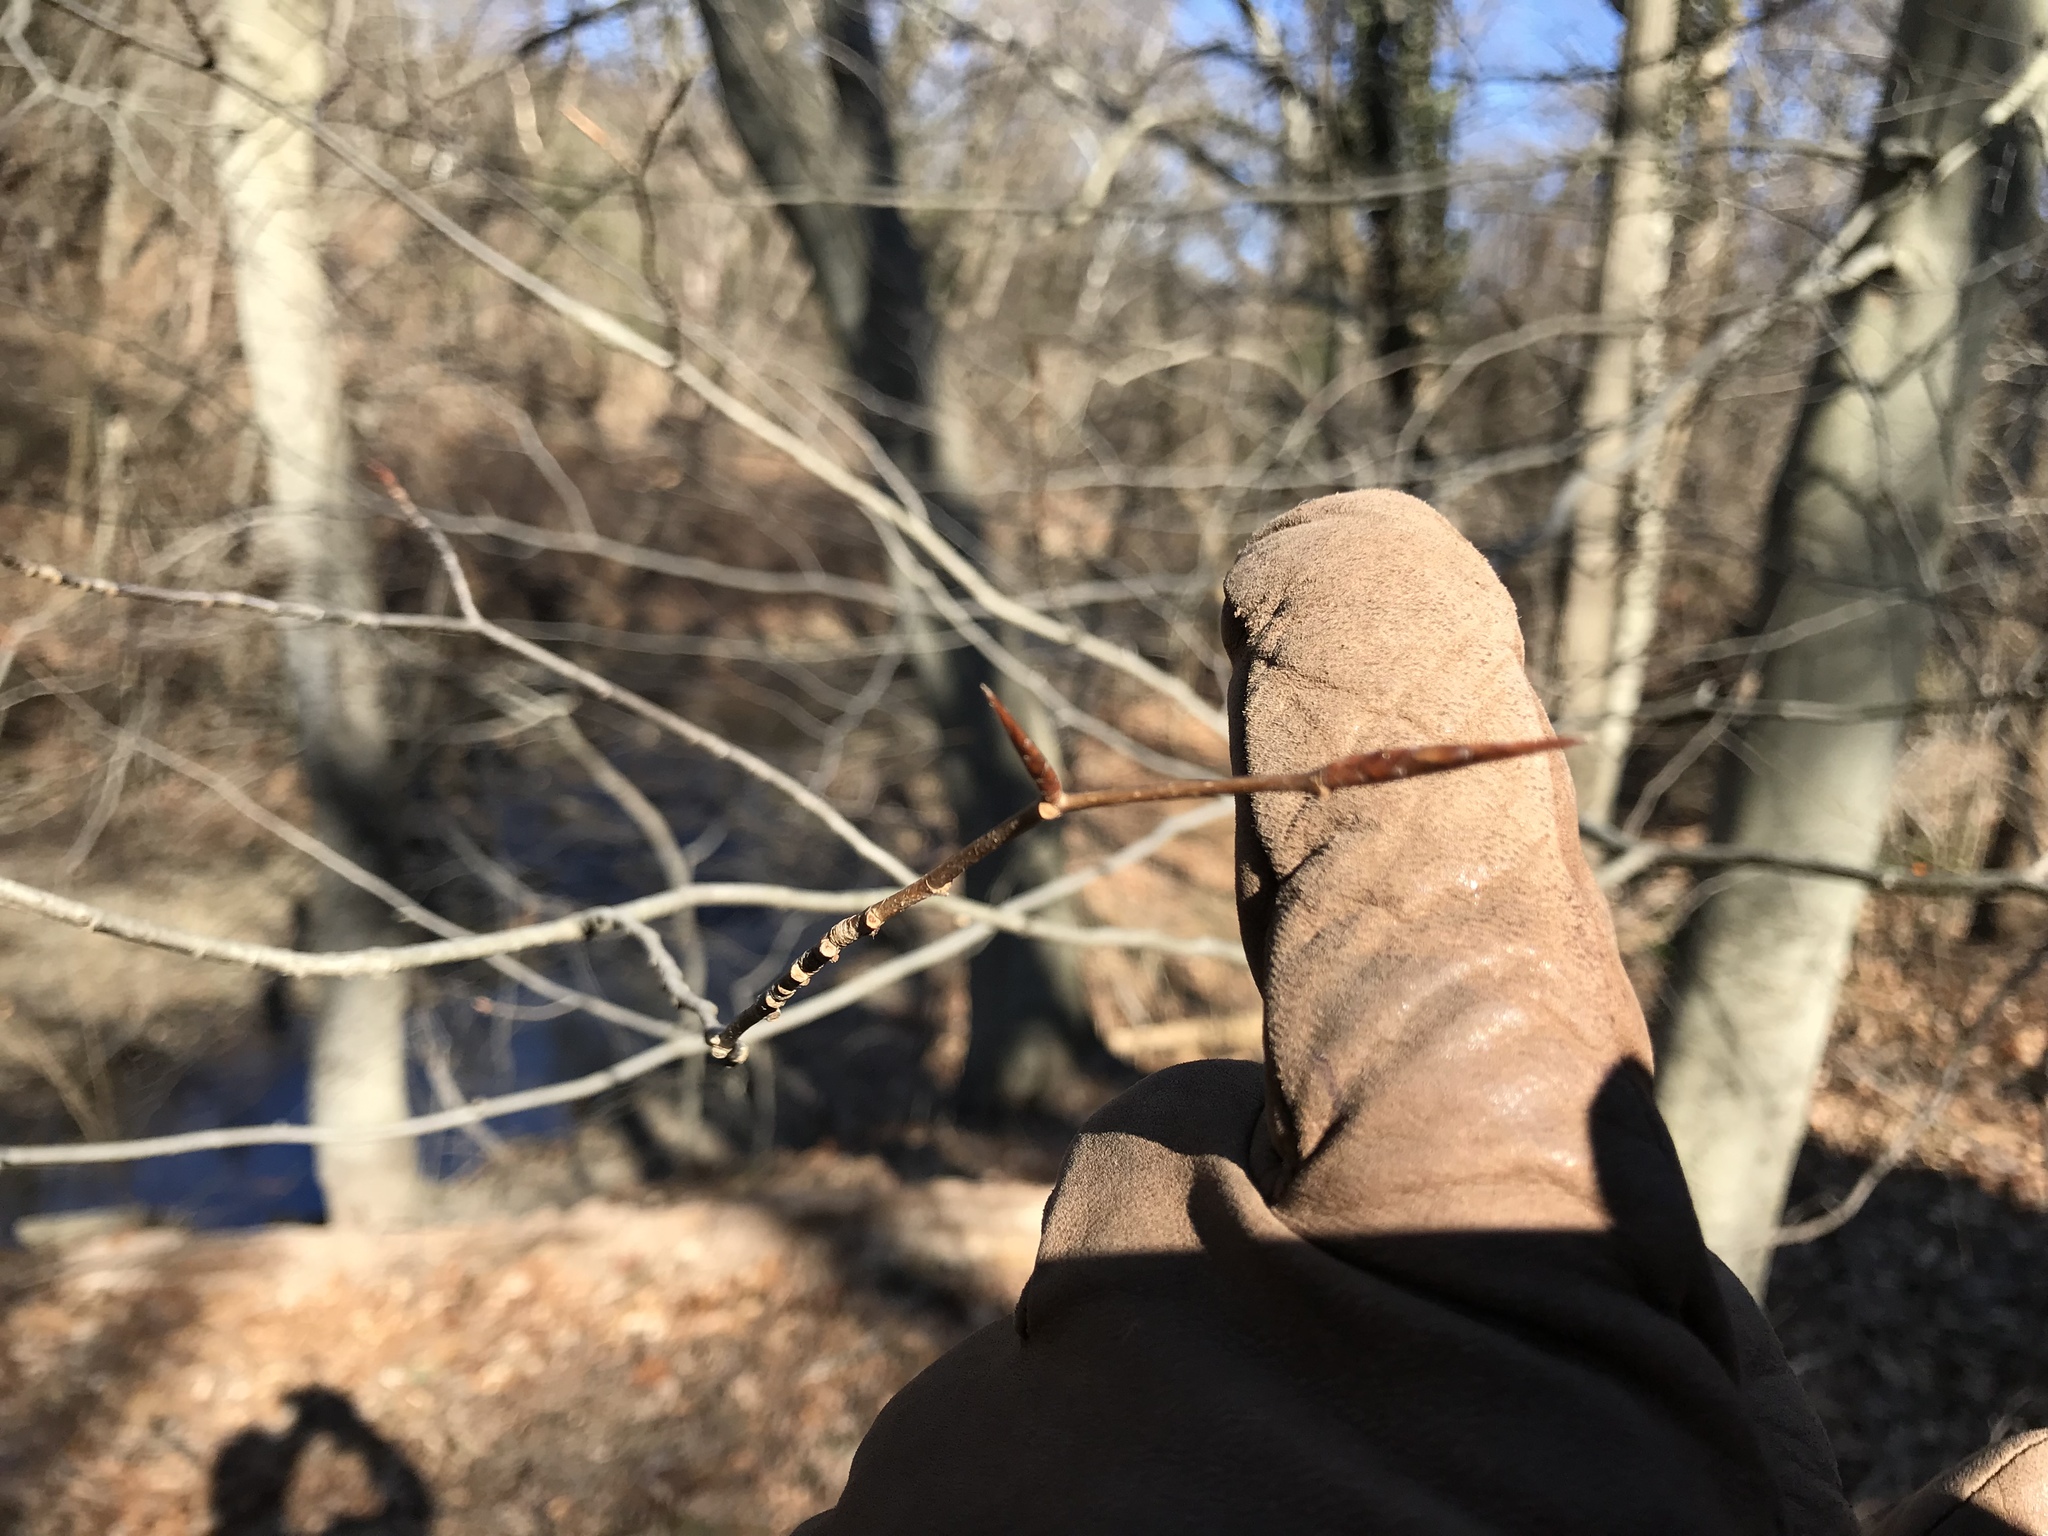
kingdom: Plantae
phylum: Tracheophyta
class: Magnoliopsida
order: Fagales
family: Fagaceae
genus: Fagus
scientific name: Fagus grandifolia
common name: American beech
